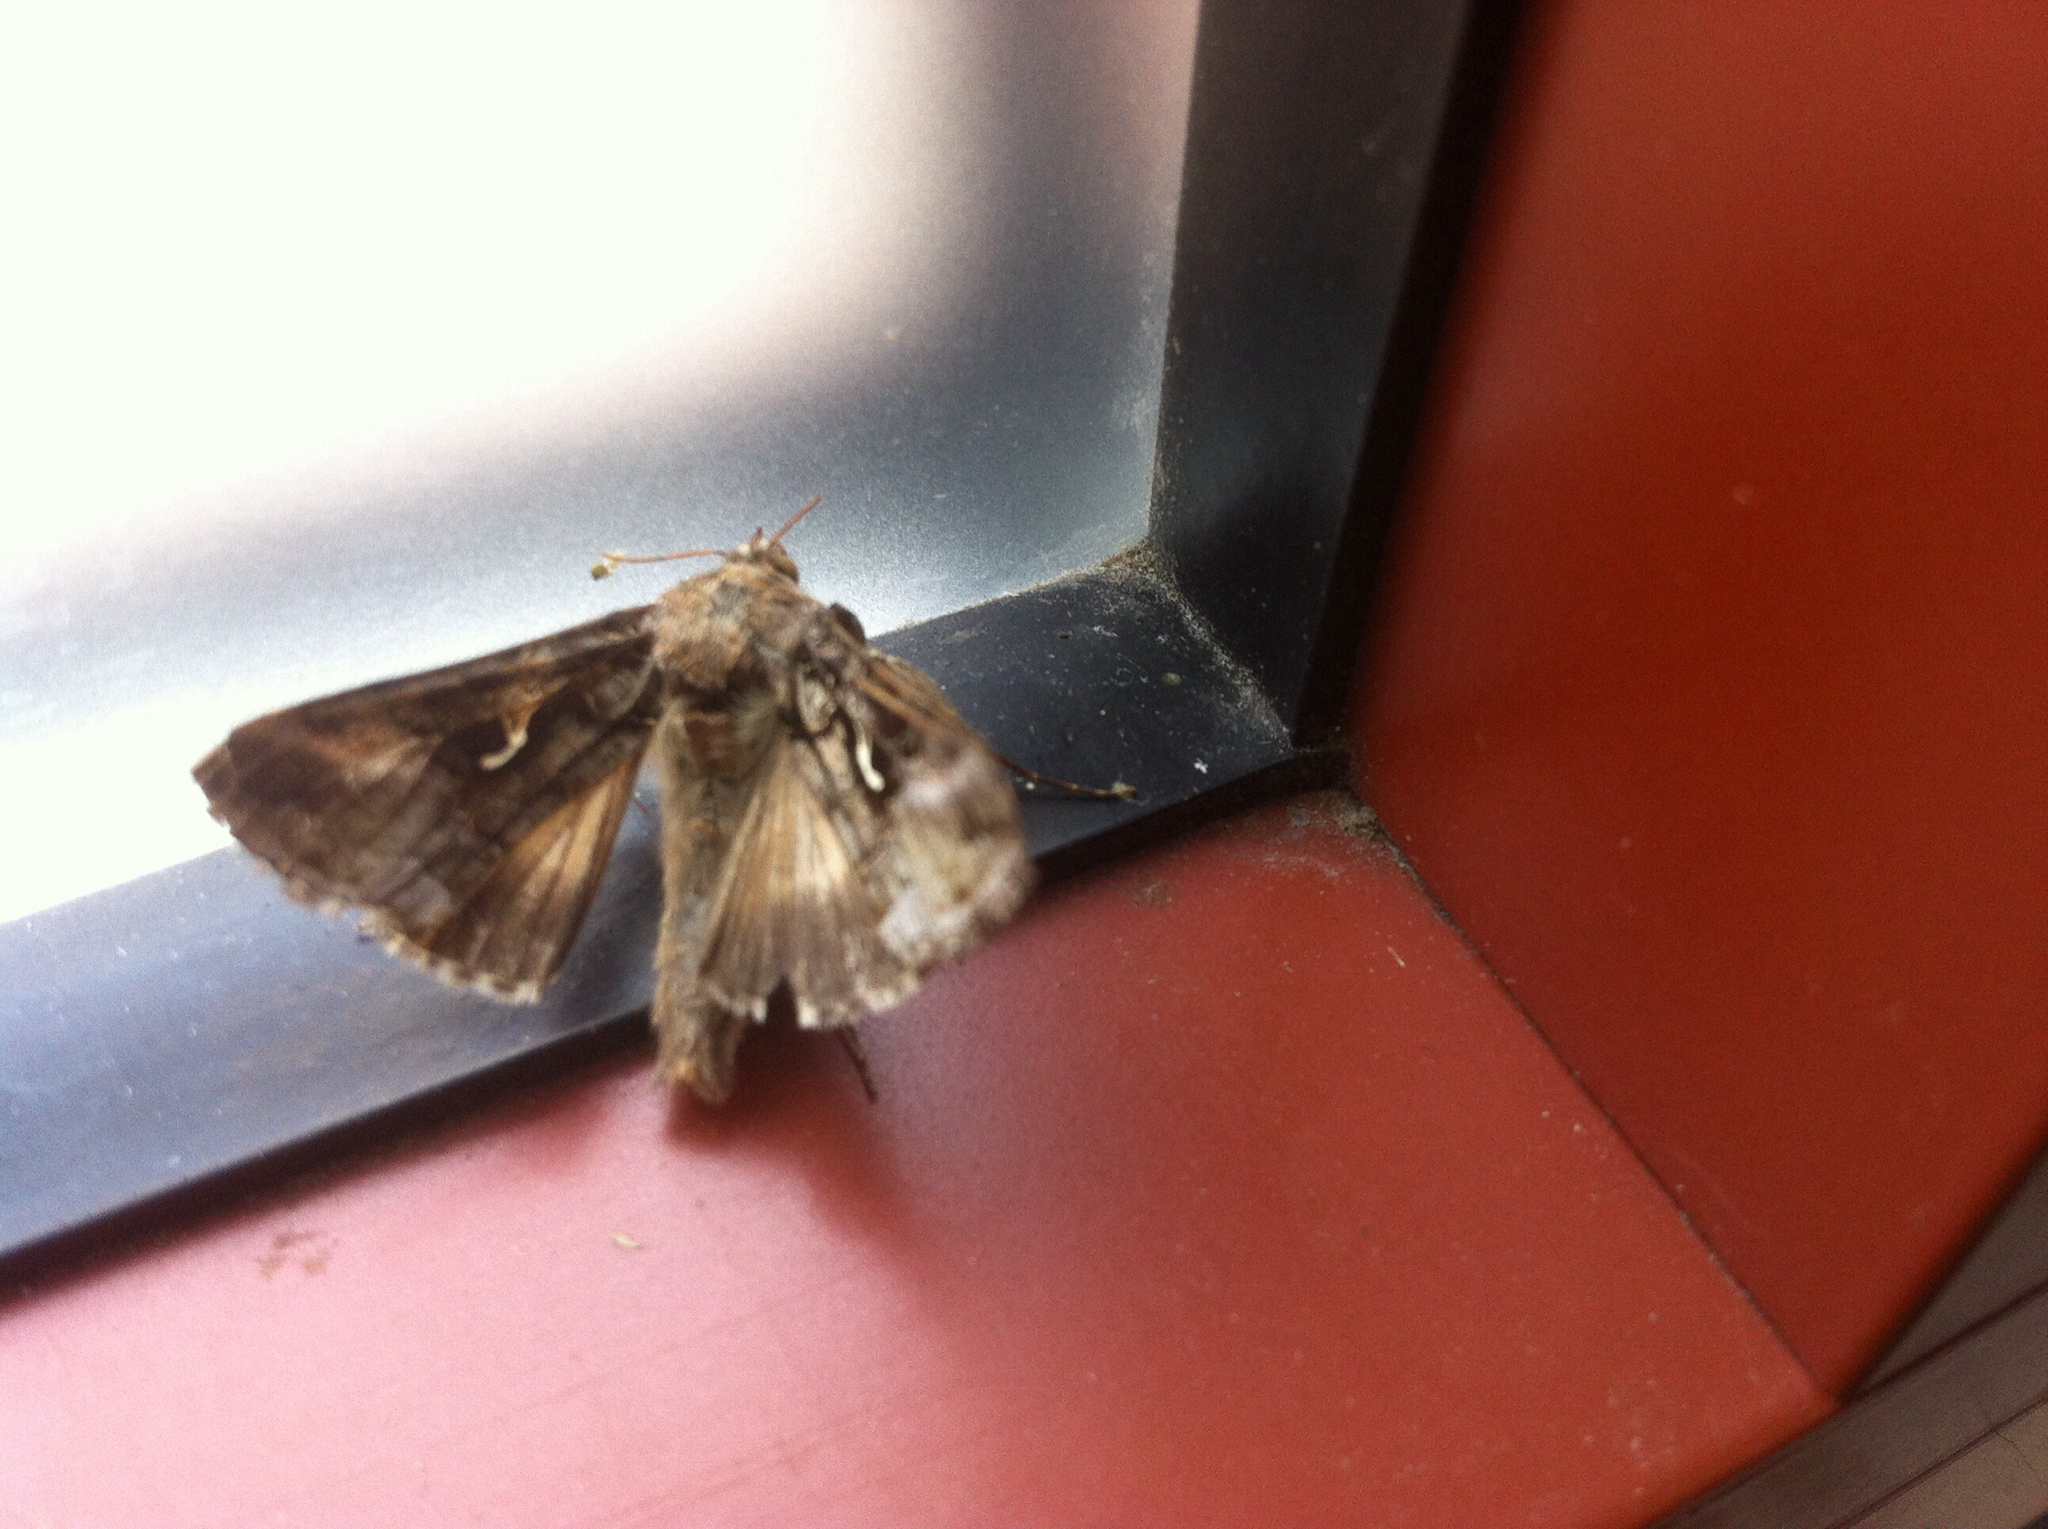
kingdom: Animalia
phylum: Arthropoda
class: Insecta
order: Lepidoptera
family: Noctuidae
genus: Autographa
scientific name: Autographa gamma
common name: Silver y
